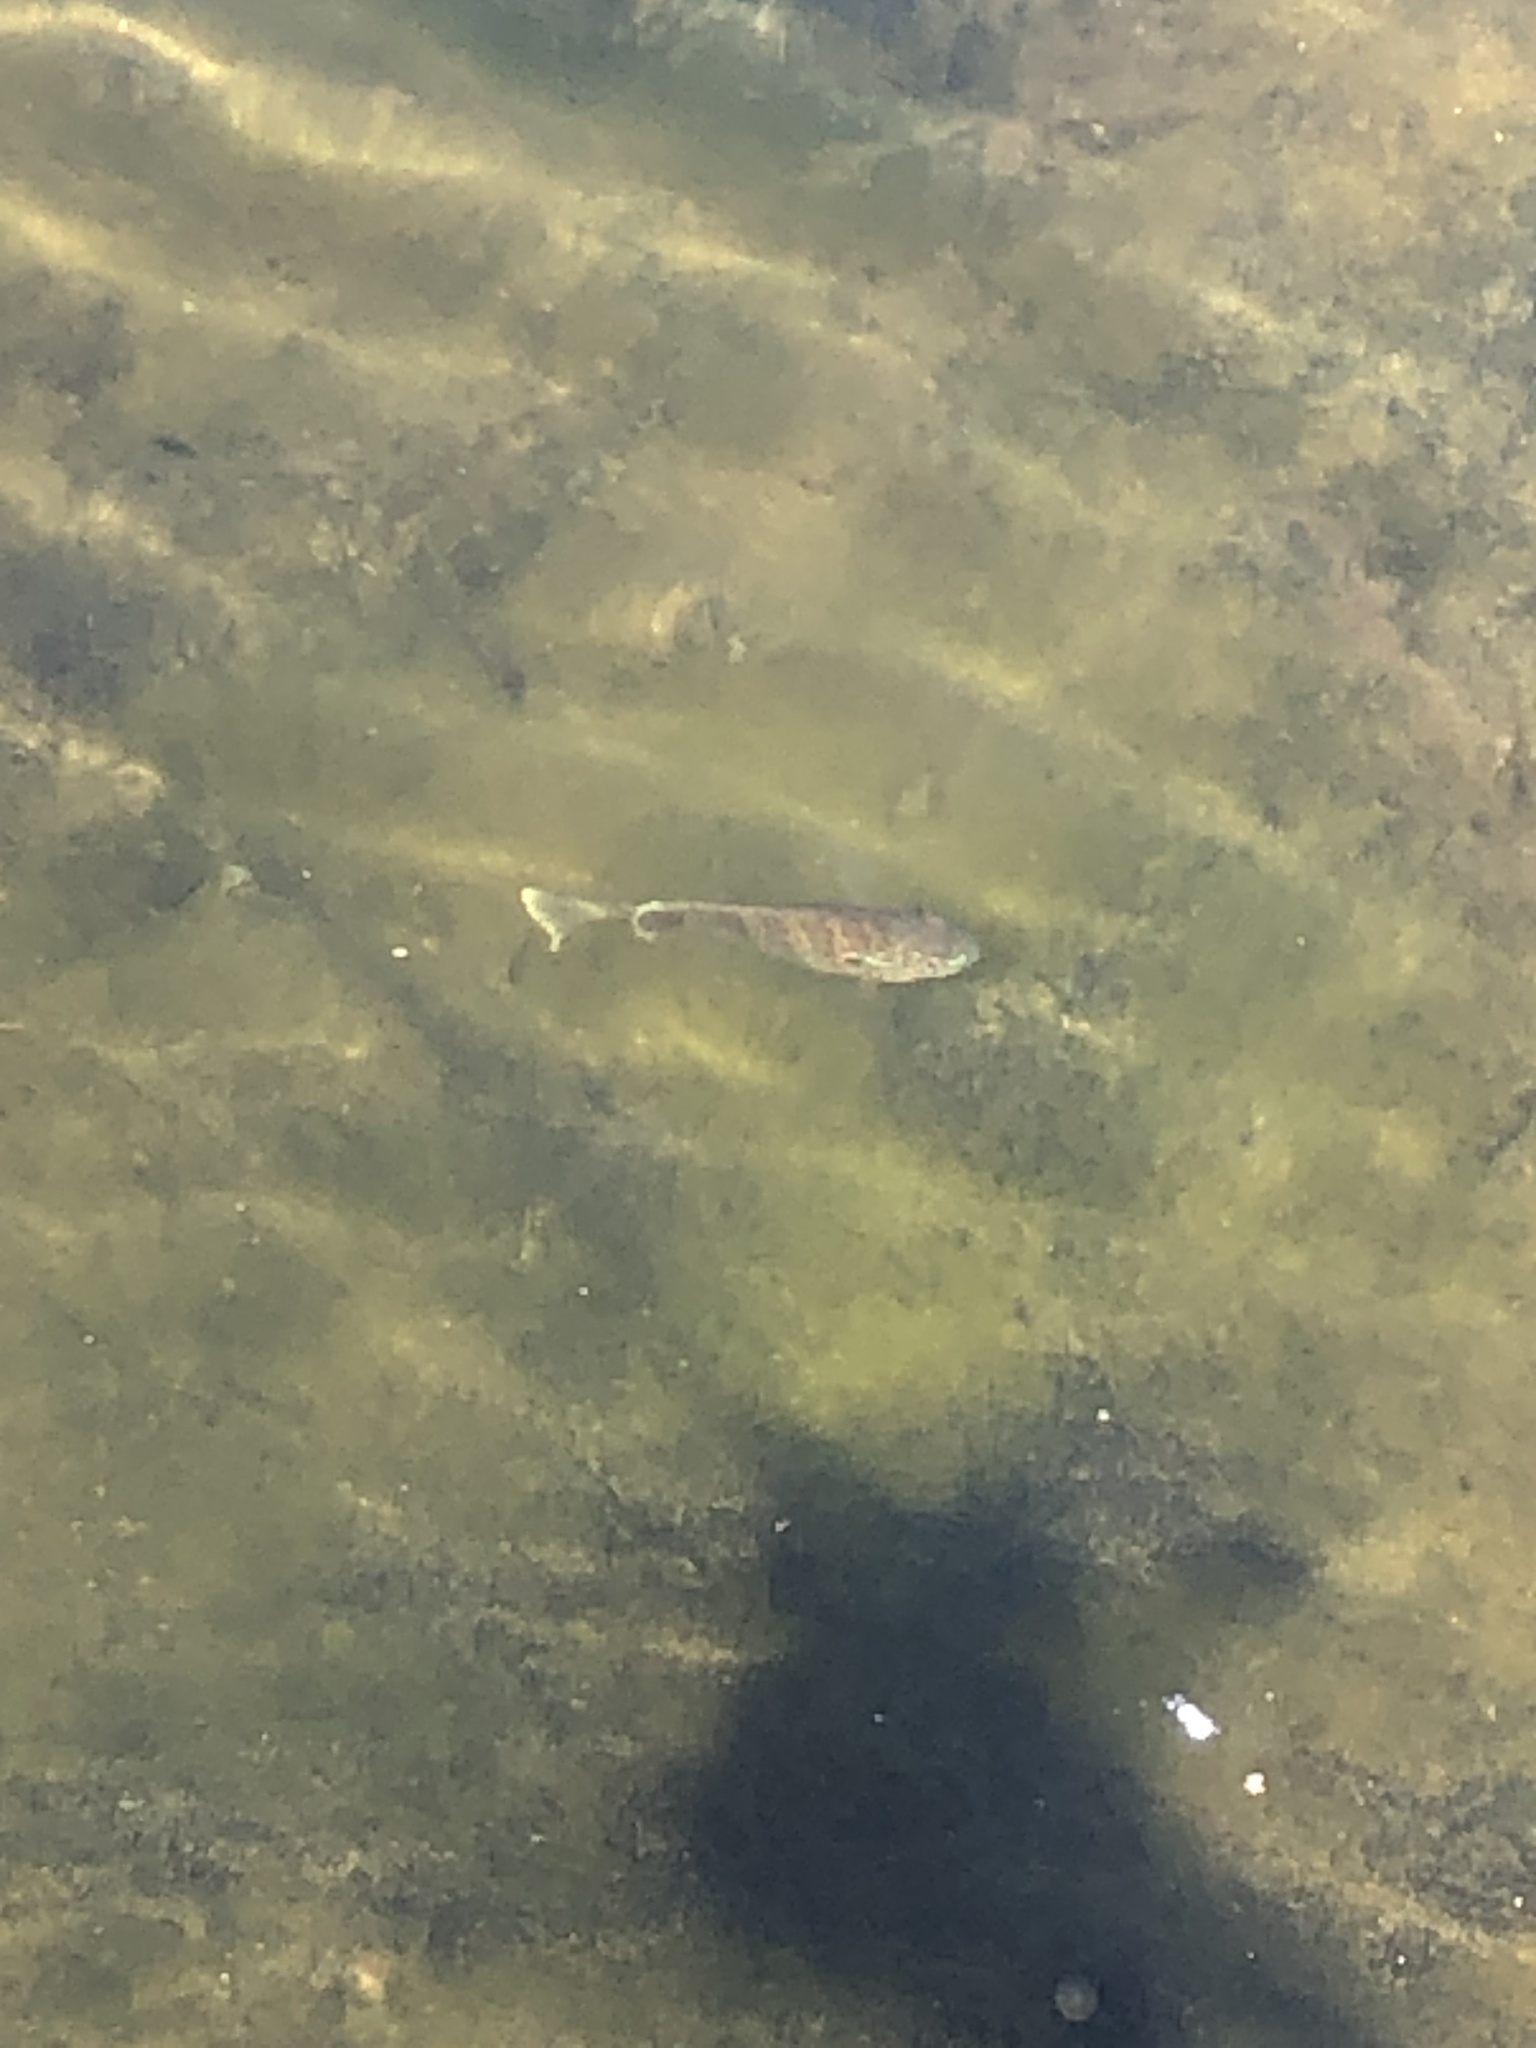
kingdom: Animalia
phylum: Chordata
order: Perciformes
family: Centrarchidae
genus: Lepomis
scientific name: Lepomis gibbosus
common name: Pumpkinseed
